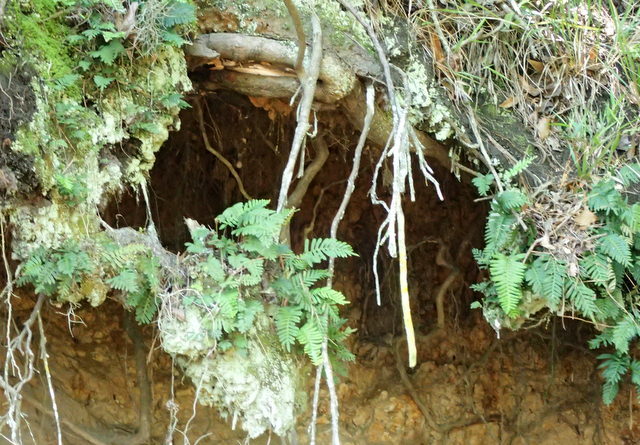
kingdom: Plantae
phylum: Tracheophyta
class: Polypodiopsida
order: Polypodiales
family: Polypodiaceae
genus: Pleopeltis
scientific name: Pleopeltis michauxiana
